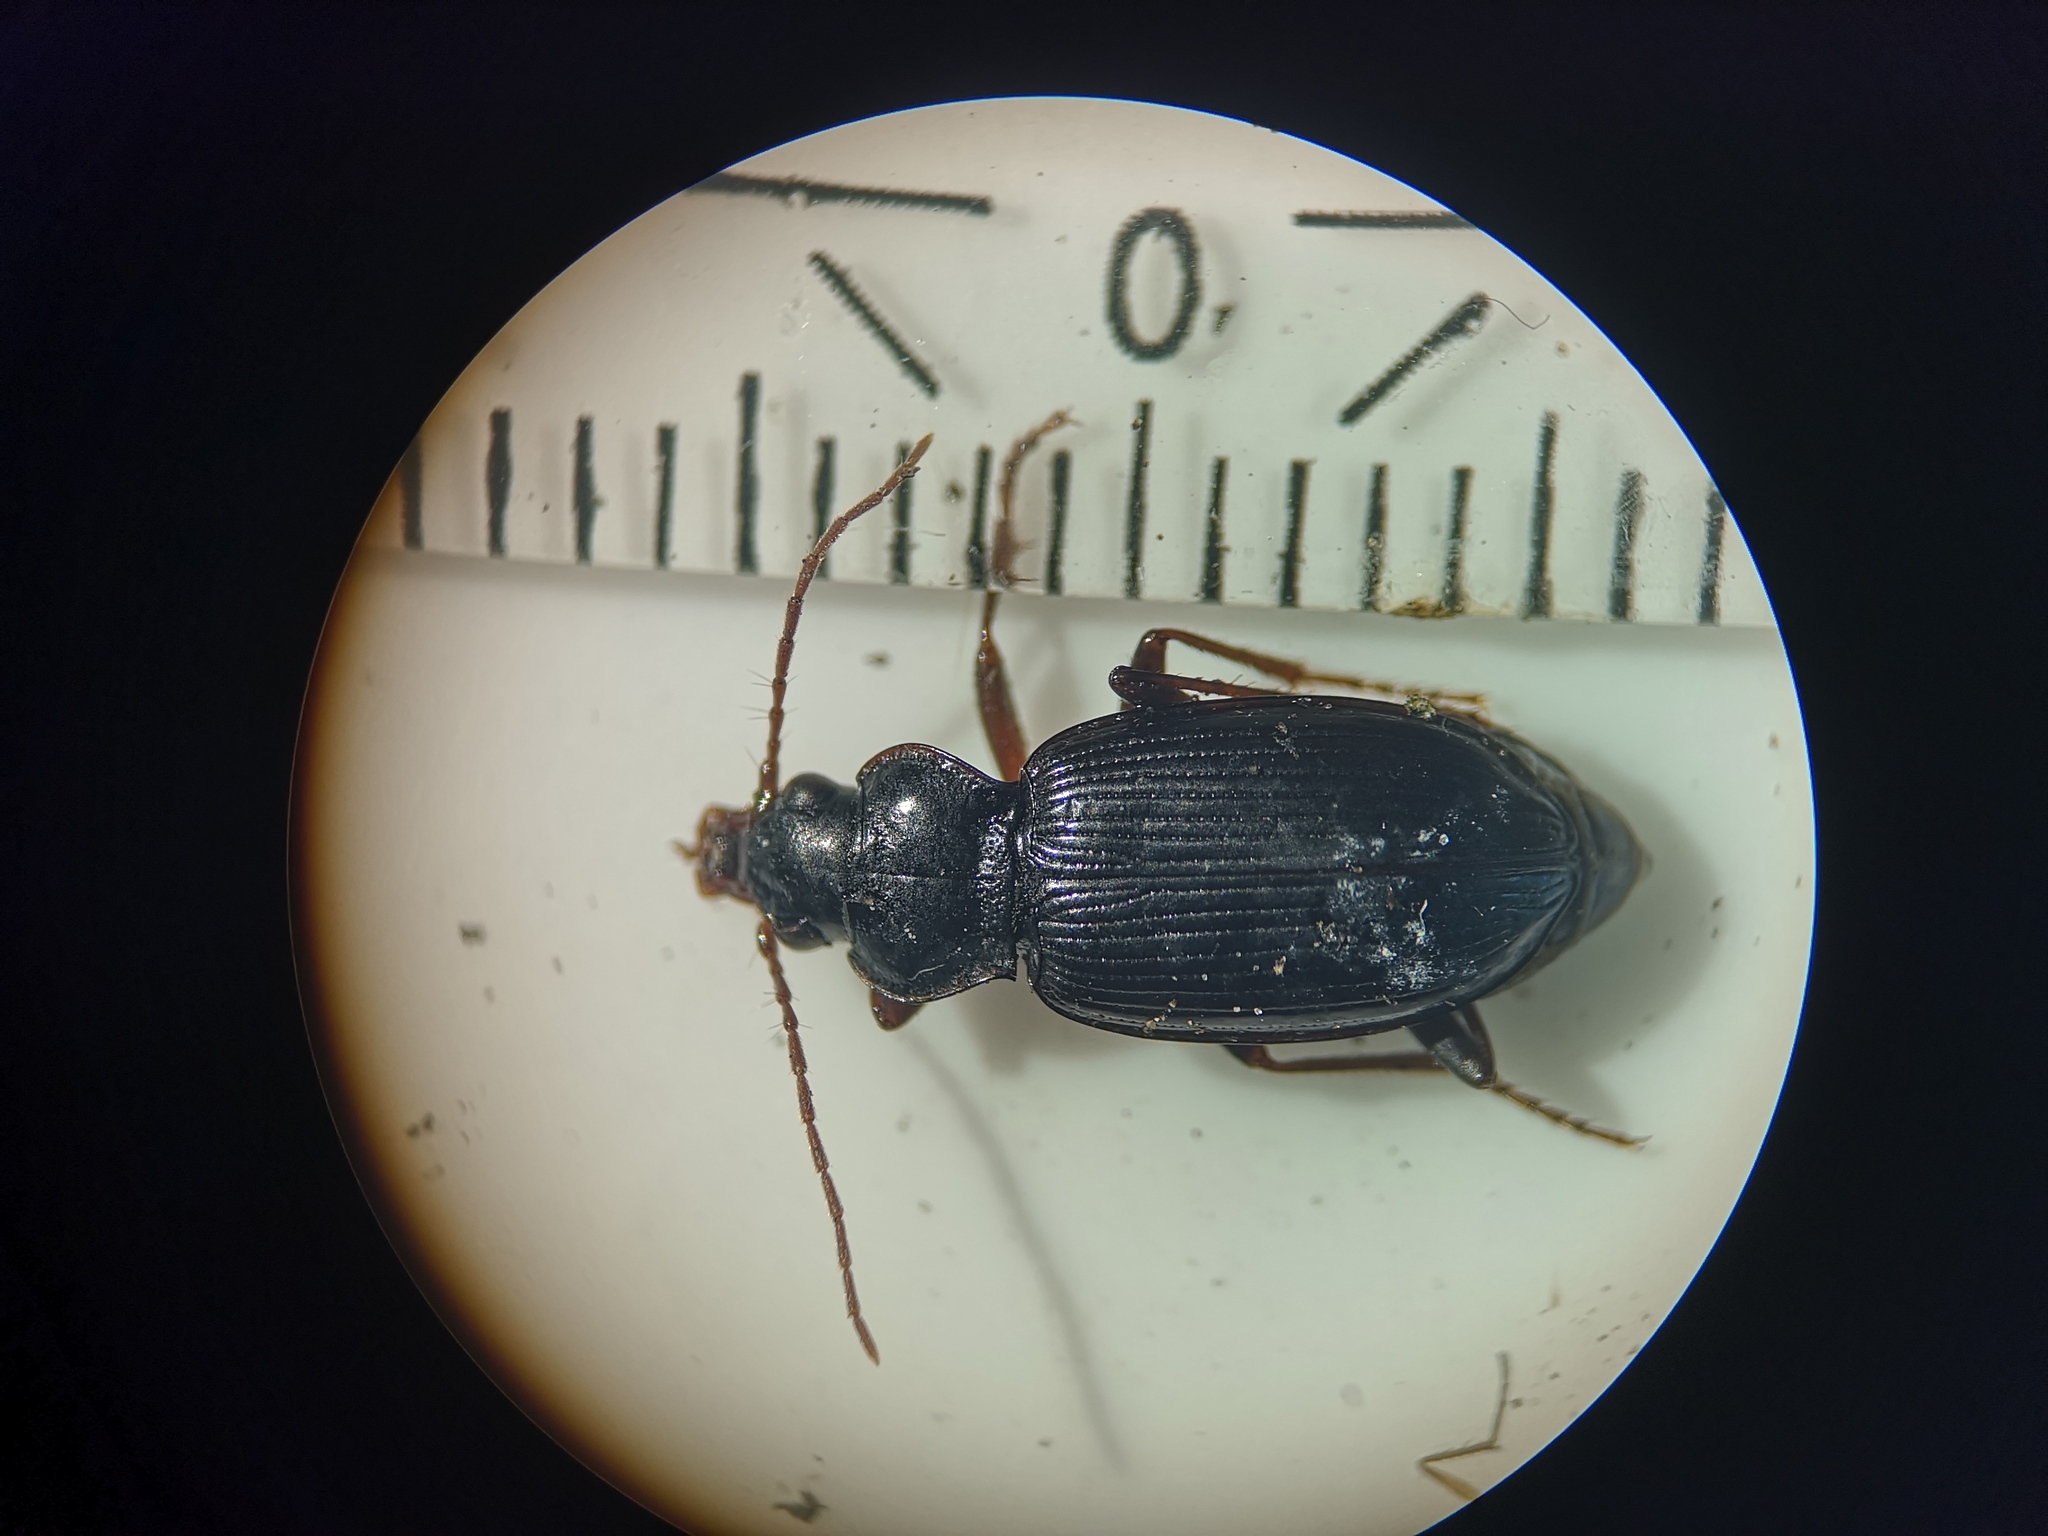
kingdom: Animalia
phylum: Arthropoda
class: Insecta
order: Coleoptera
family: Carabidae
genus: Nebria
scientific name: Nebria brevicollis
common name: Short-necked gazelle beetle
